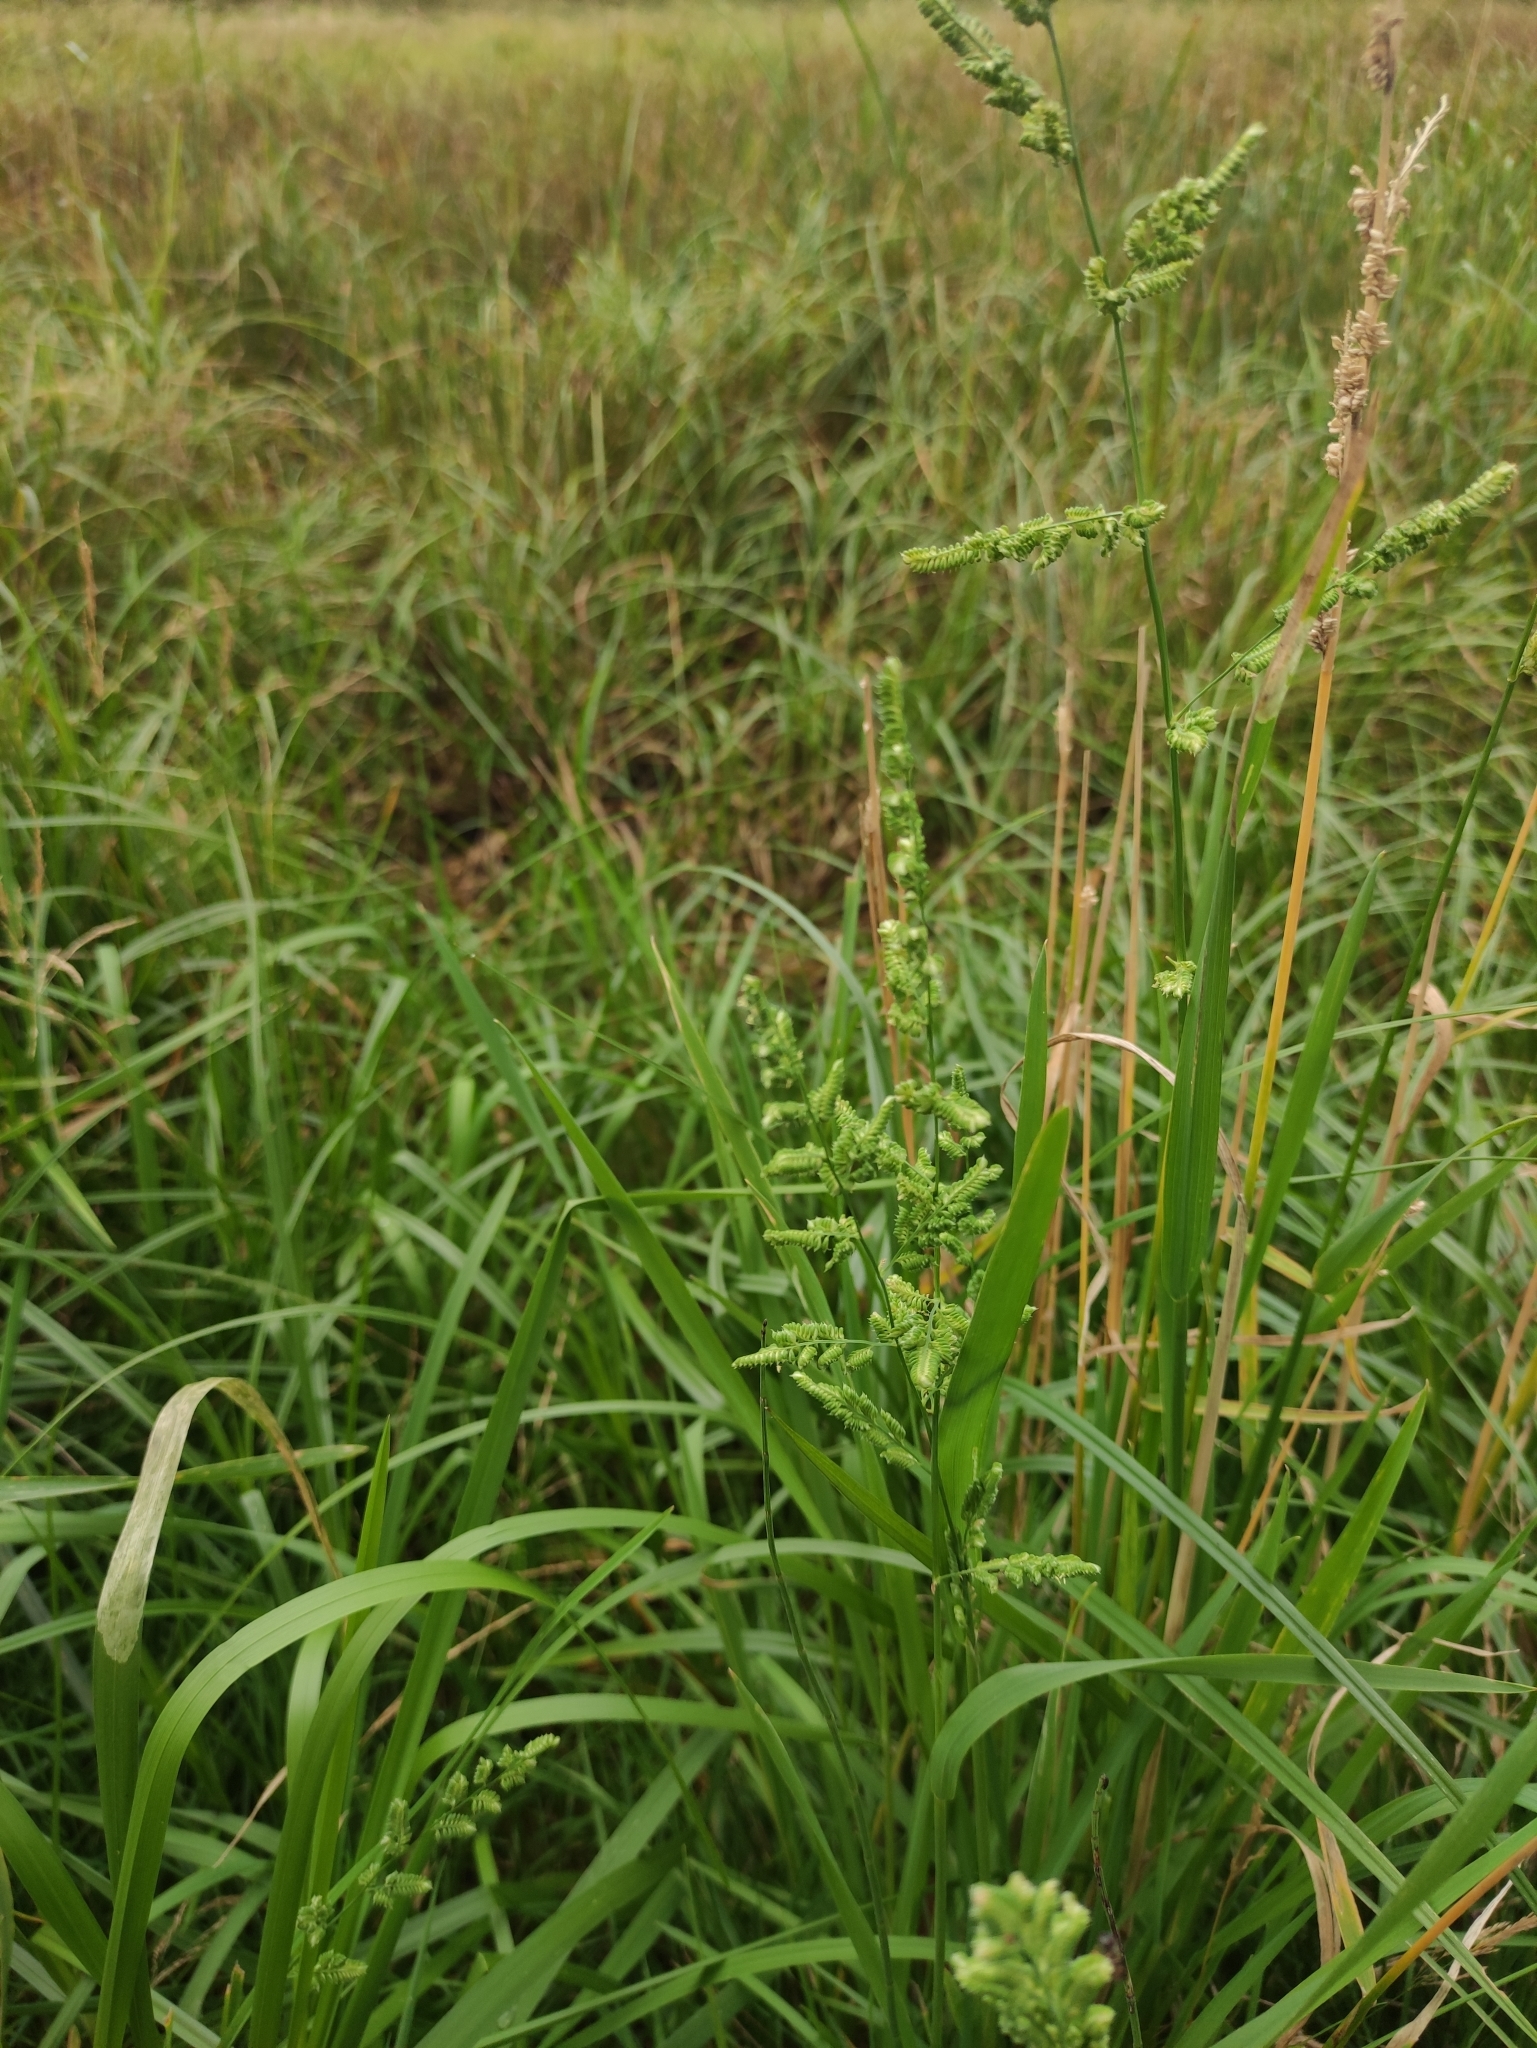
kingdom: Plantae
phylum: Tracheophyta
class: Liliopsida
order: Poales
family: Poaceae
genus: Beckmannia
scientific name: Beckmannia syzigachne
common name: American slough-grass
